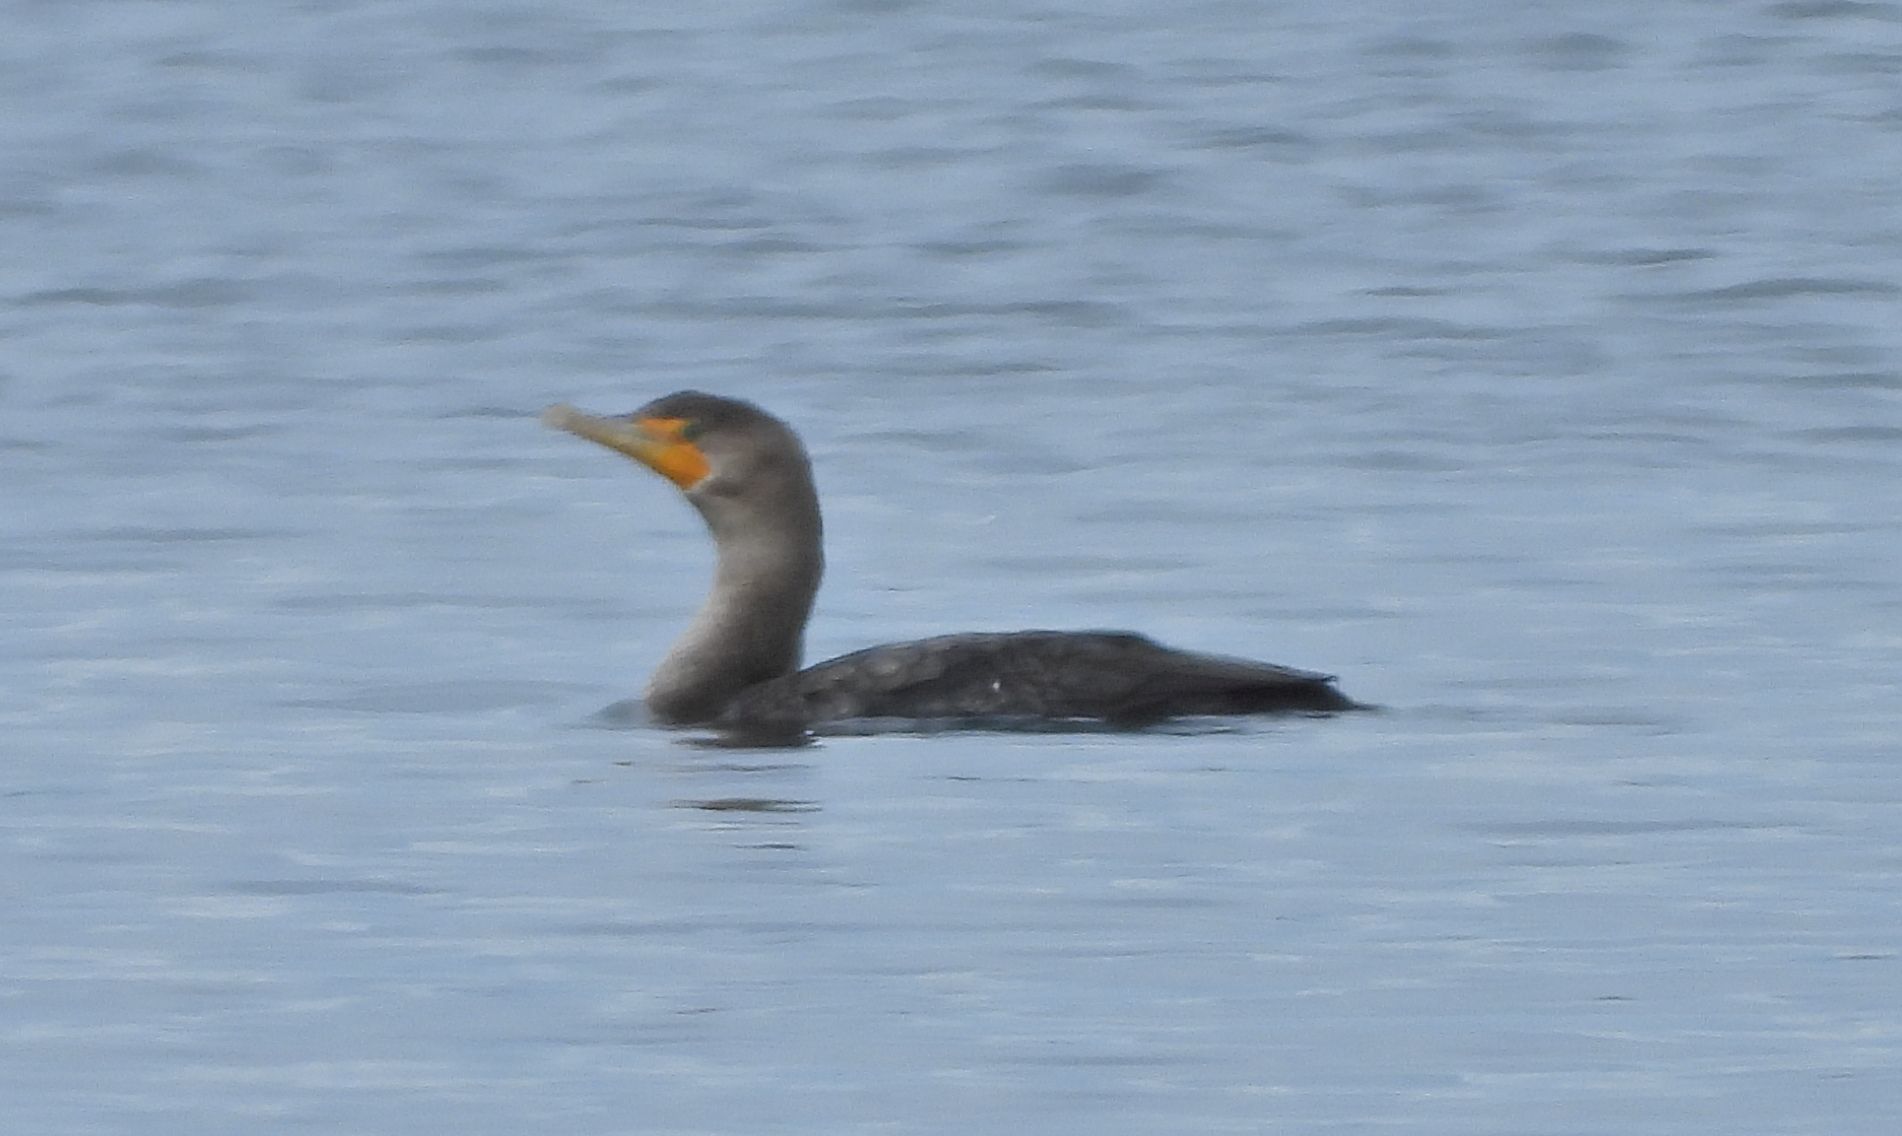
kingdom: Animalia
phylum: Chordata
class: Aves
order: Suliformes
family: Phalacrocoracidae
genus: Phalacrocorax
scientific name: Phalacrocorax auritus
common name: Double-crested cormorant
